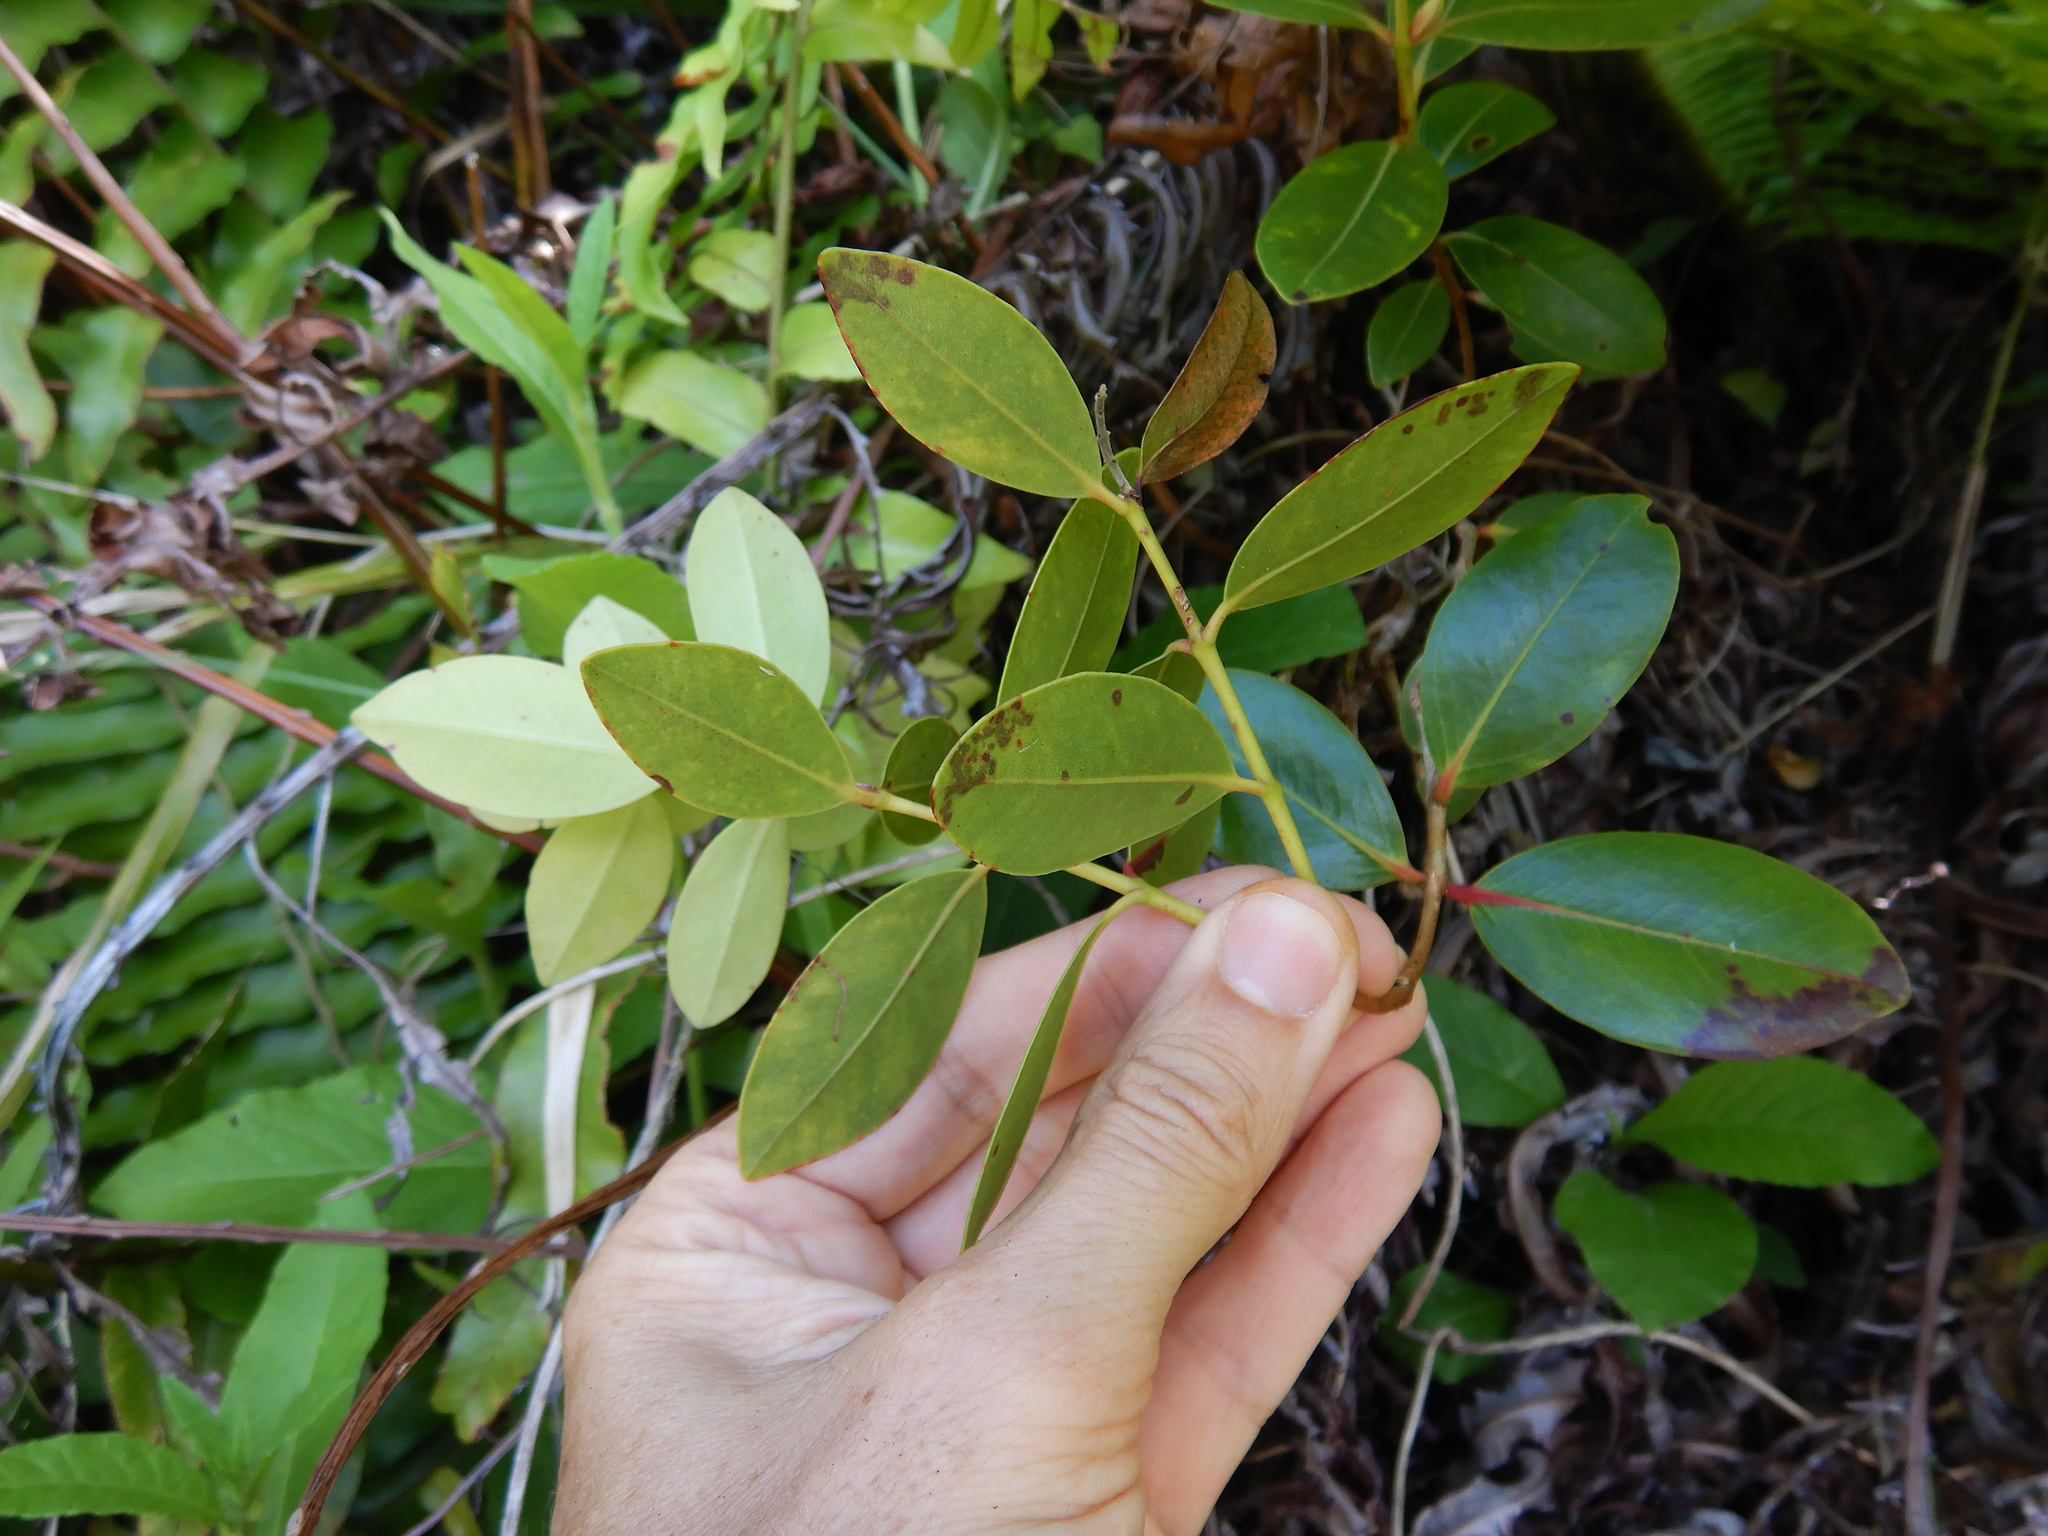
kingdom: Plantae
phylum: Tracheophyta
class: Magnoliopsida
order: Myrtales
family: Myrtaceae
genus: Metrosideros
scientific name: Metrosideros collina
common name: Vunga
